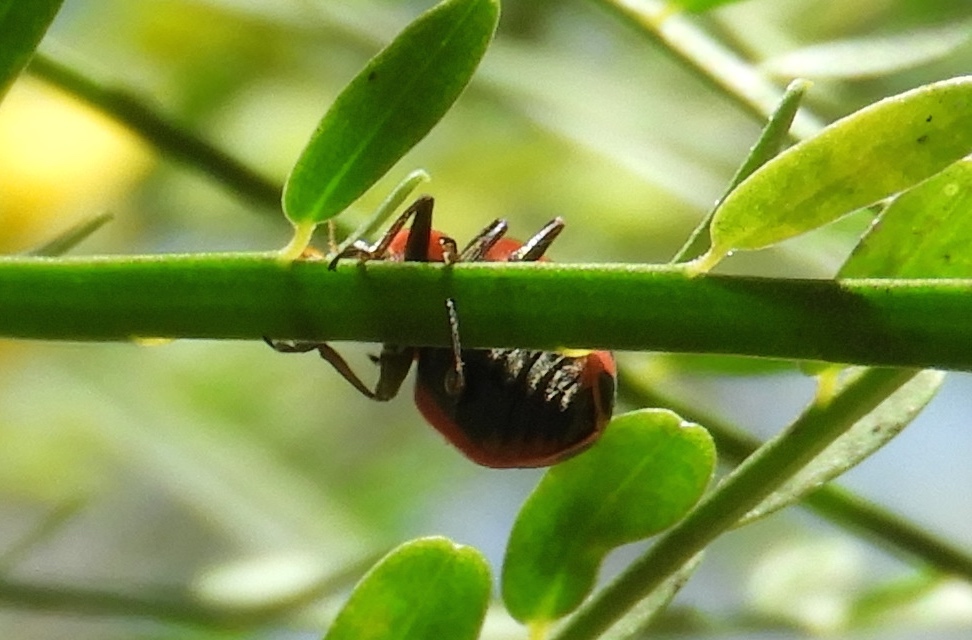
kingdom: Animalia
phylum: Arthropoda
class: Insecta
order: Coleoptera
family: Coccinellidae
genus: Coleomegilla
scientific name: Coleomegilla maculata
